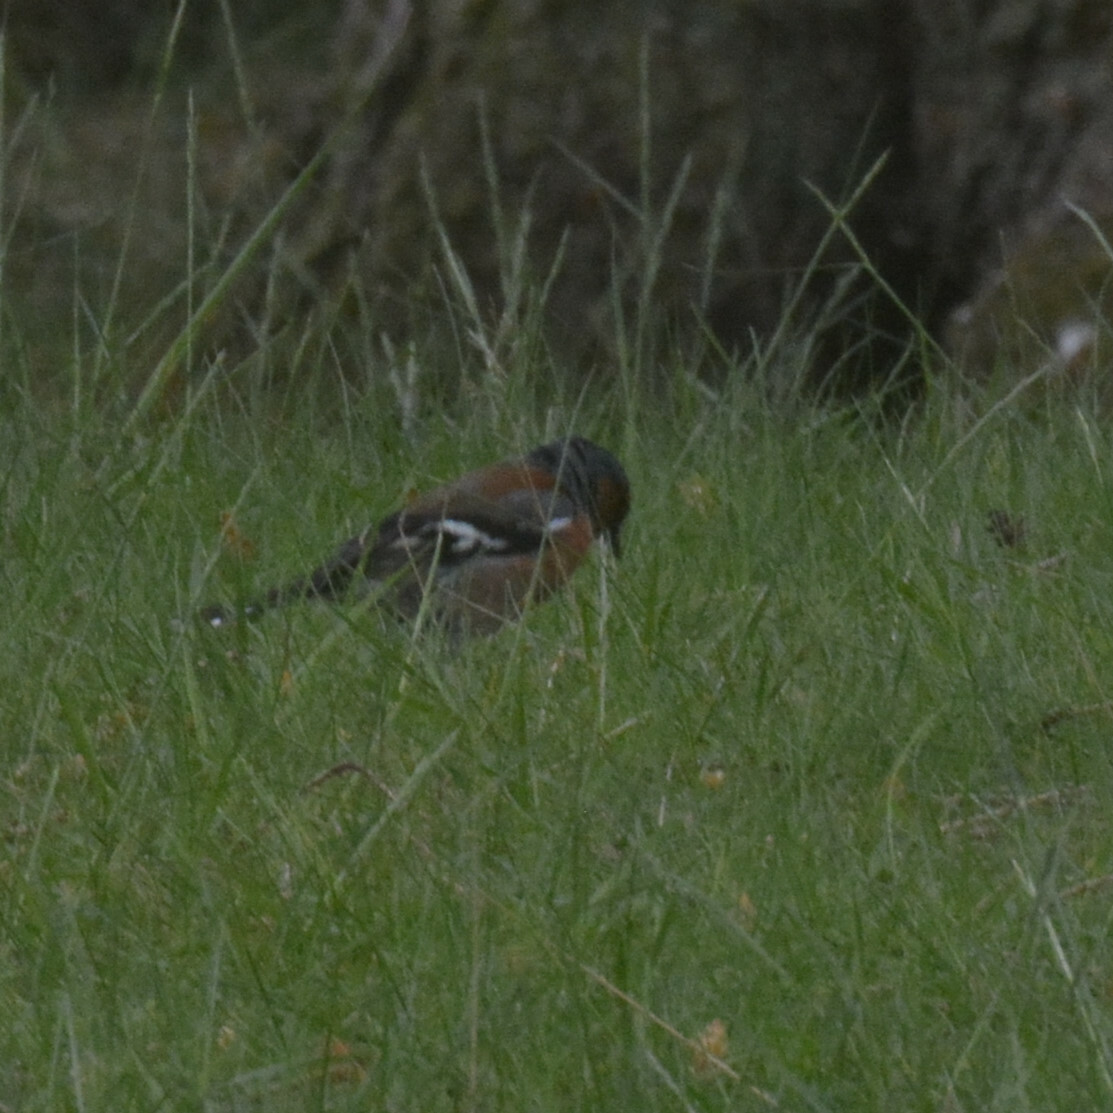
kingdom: Animalia
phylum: Chordata
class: Aves
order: Passeriformes
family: Fringillidae
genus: Fringilla
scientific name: Fringilla coelebs
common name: Common chaffinch
